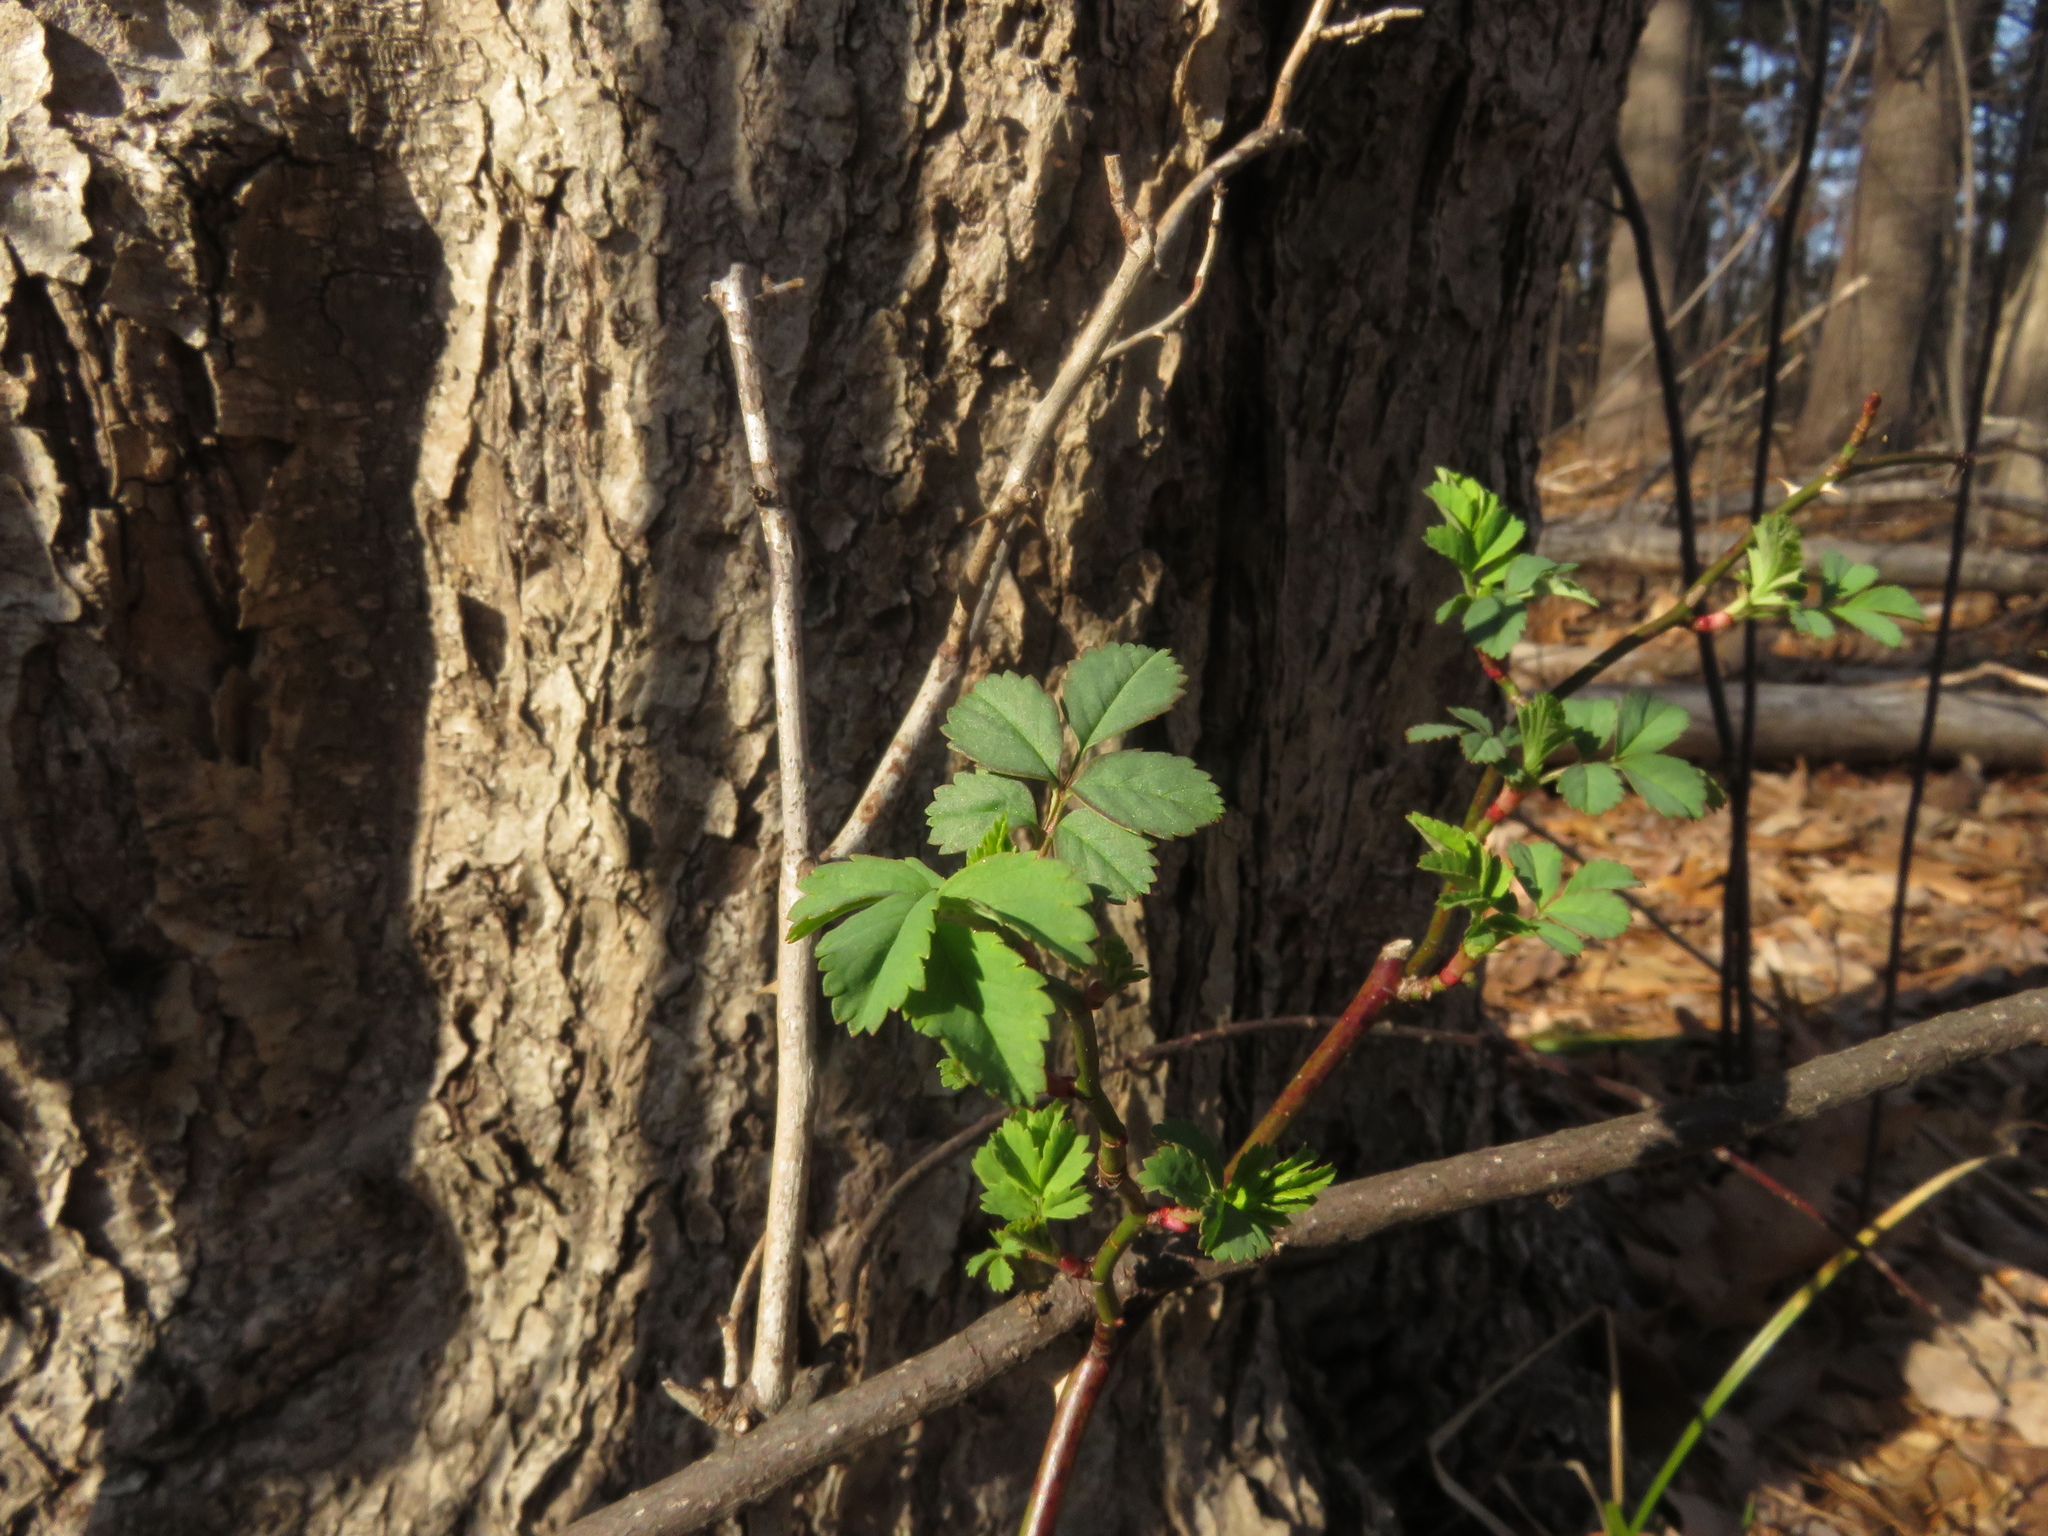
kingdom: Plantae
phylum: Tracheophyta
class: Magnoliopsida
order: Rosales
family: Rosaceae
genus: Rosa
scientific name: Rosa multiflora
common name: Multiflora rose
